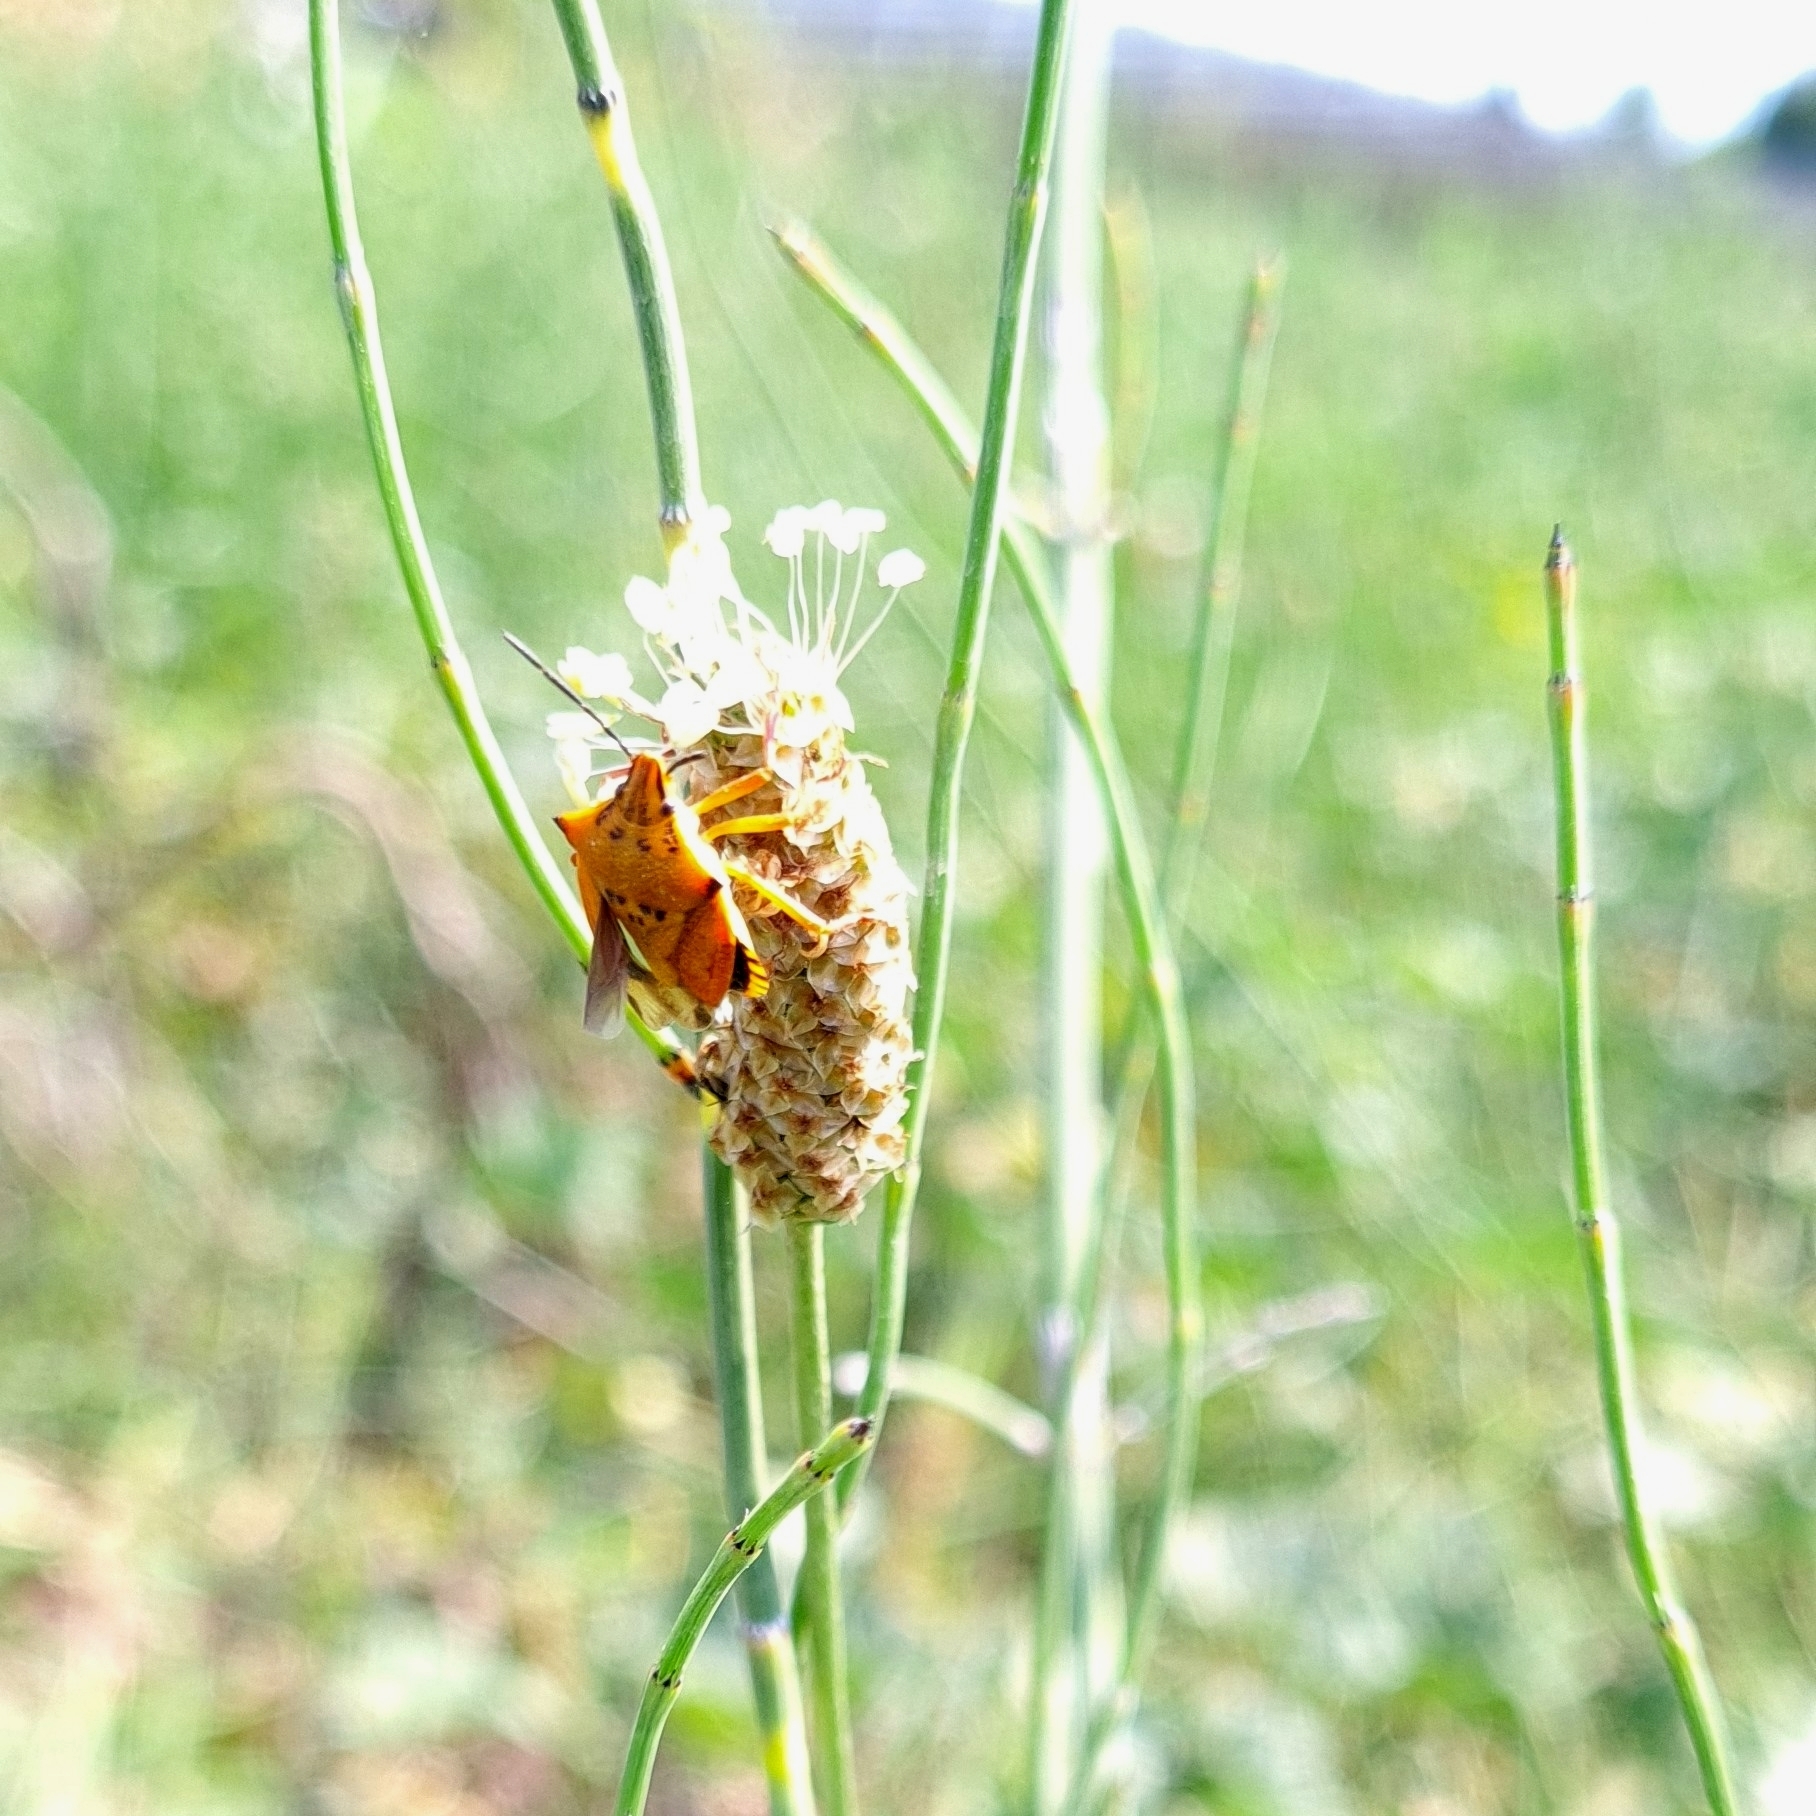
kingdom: Animalia
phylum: Arthropoda
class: Insecta
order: Hemiptera
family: Pentatomidae
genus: Carpocoris
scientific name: Carpocoris mediterraneus
